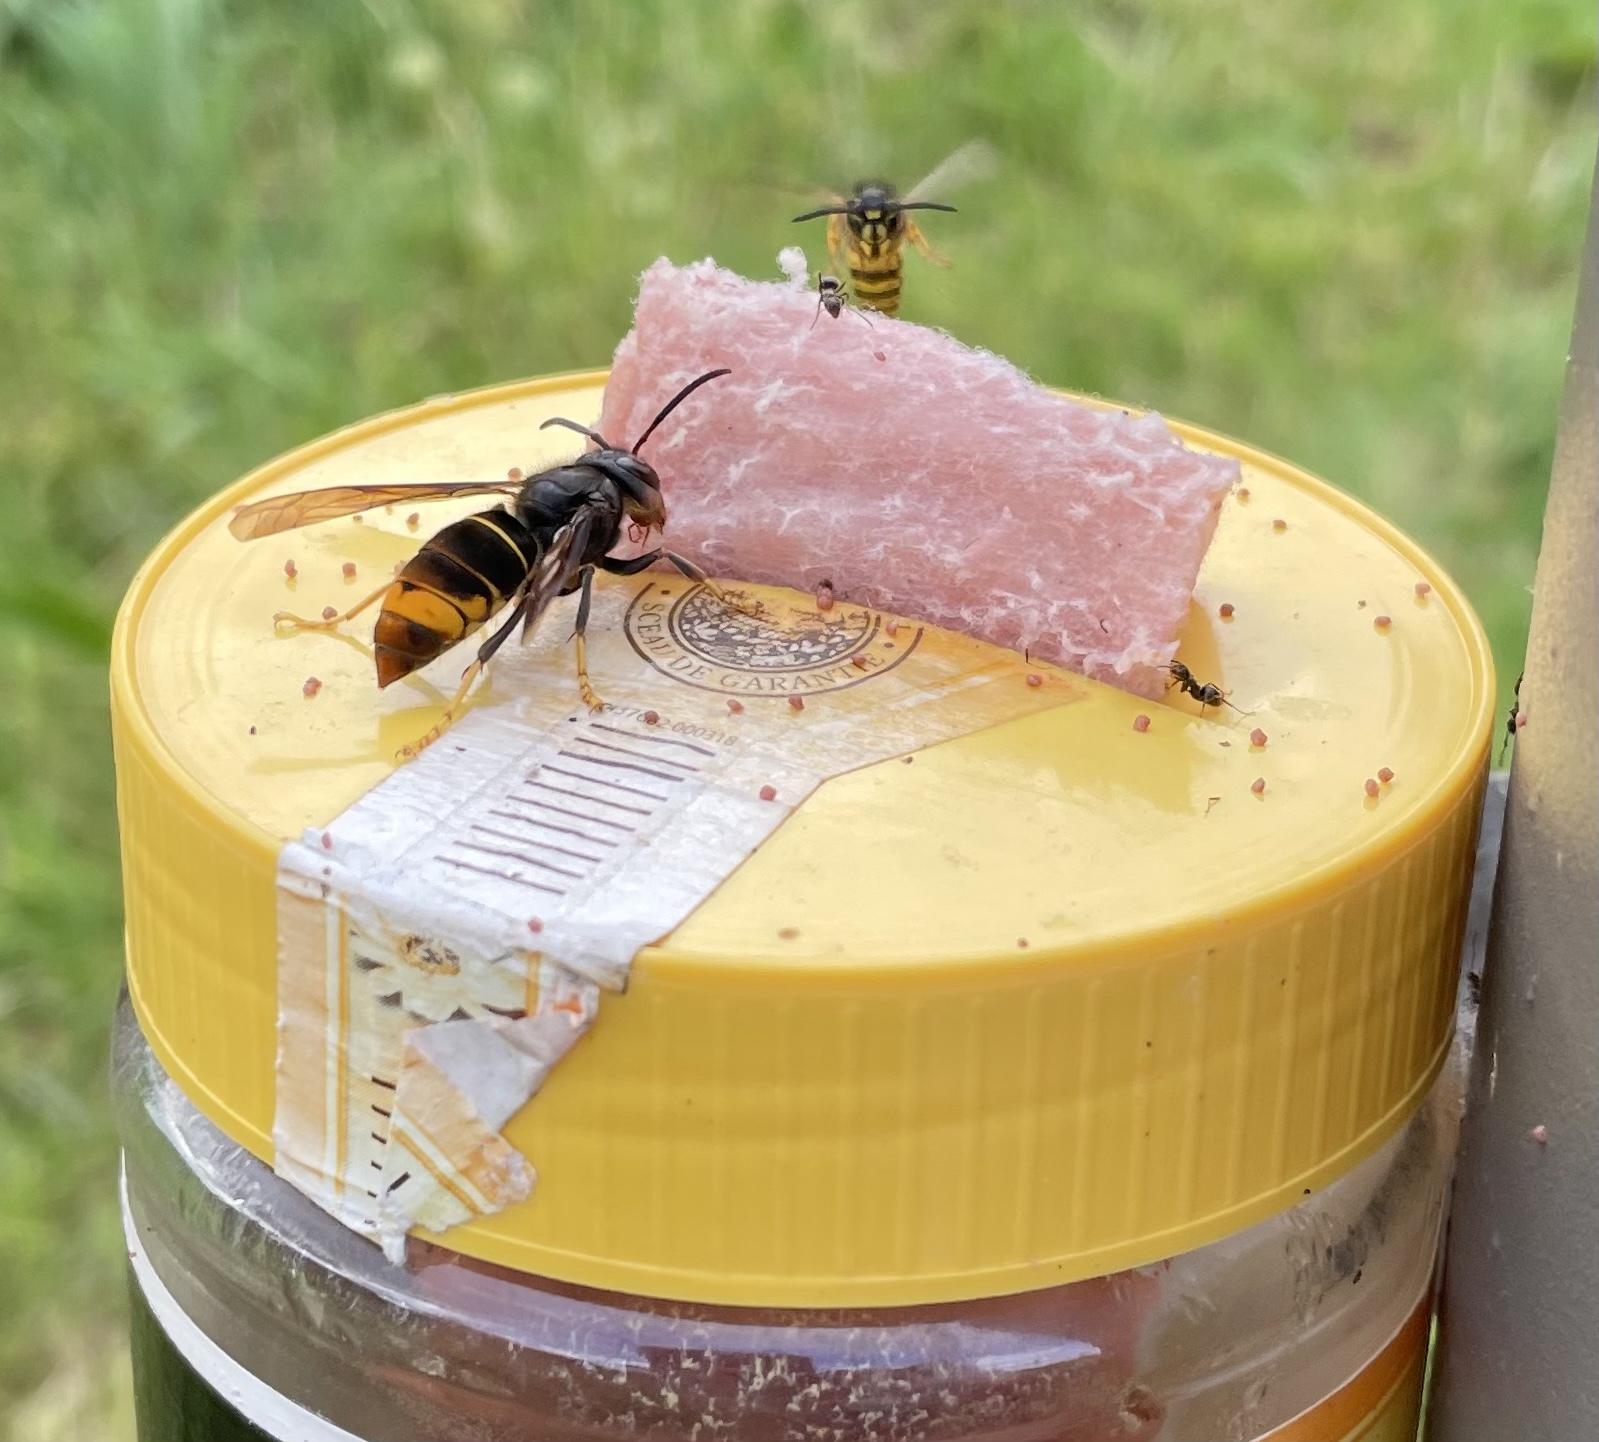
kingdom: Animalia
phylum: Arthropoda
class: Insecta
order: Hymenoptera
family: Vespidae
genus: Vespa
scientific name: Vespa velutina
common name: Asian hornet
